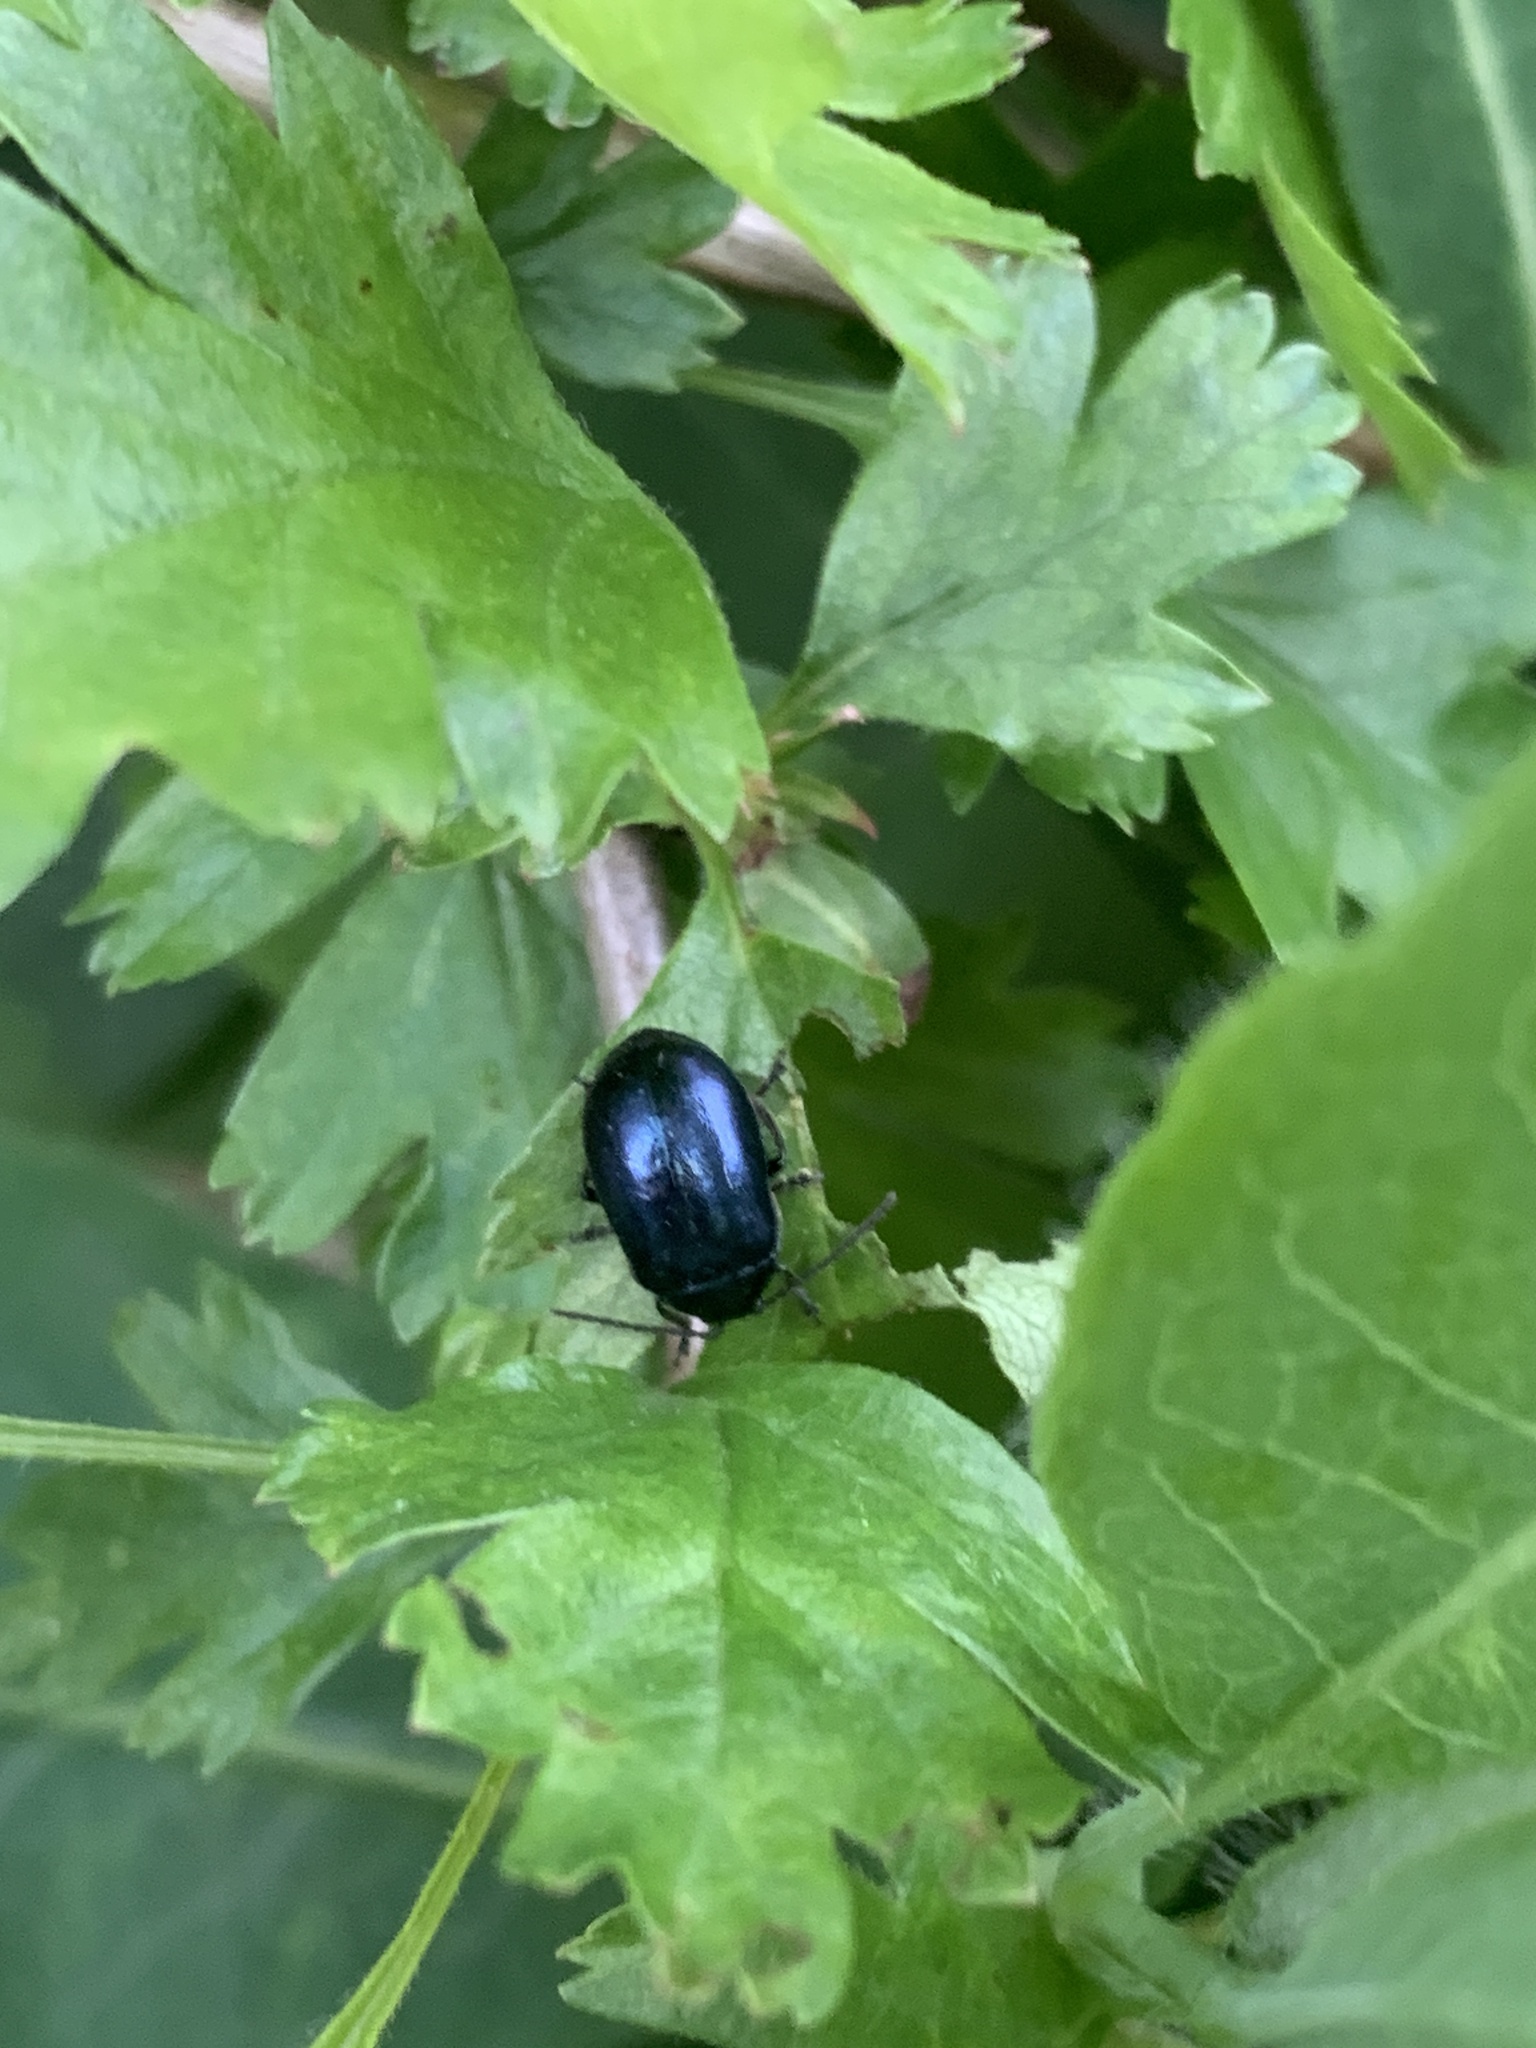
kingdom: Animalia
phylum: Arthropoda
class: Insecta
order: Coleoptera
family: Chrysomelidae
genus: Agelastica
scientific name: Agelastica alni
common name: Alder leaf beetle
